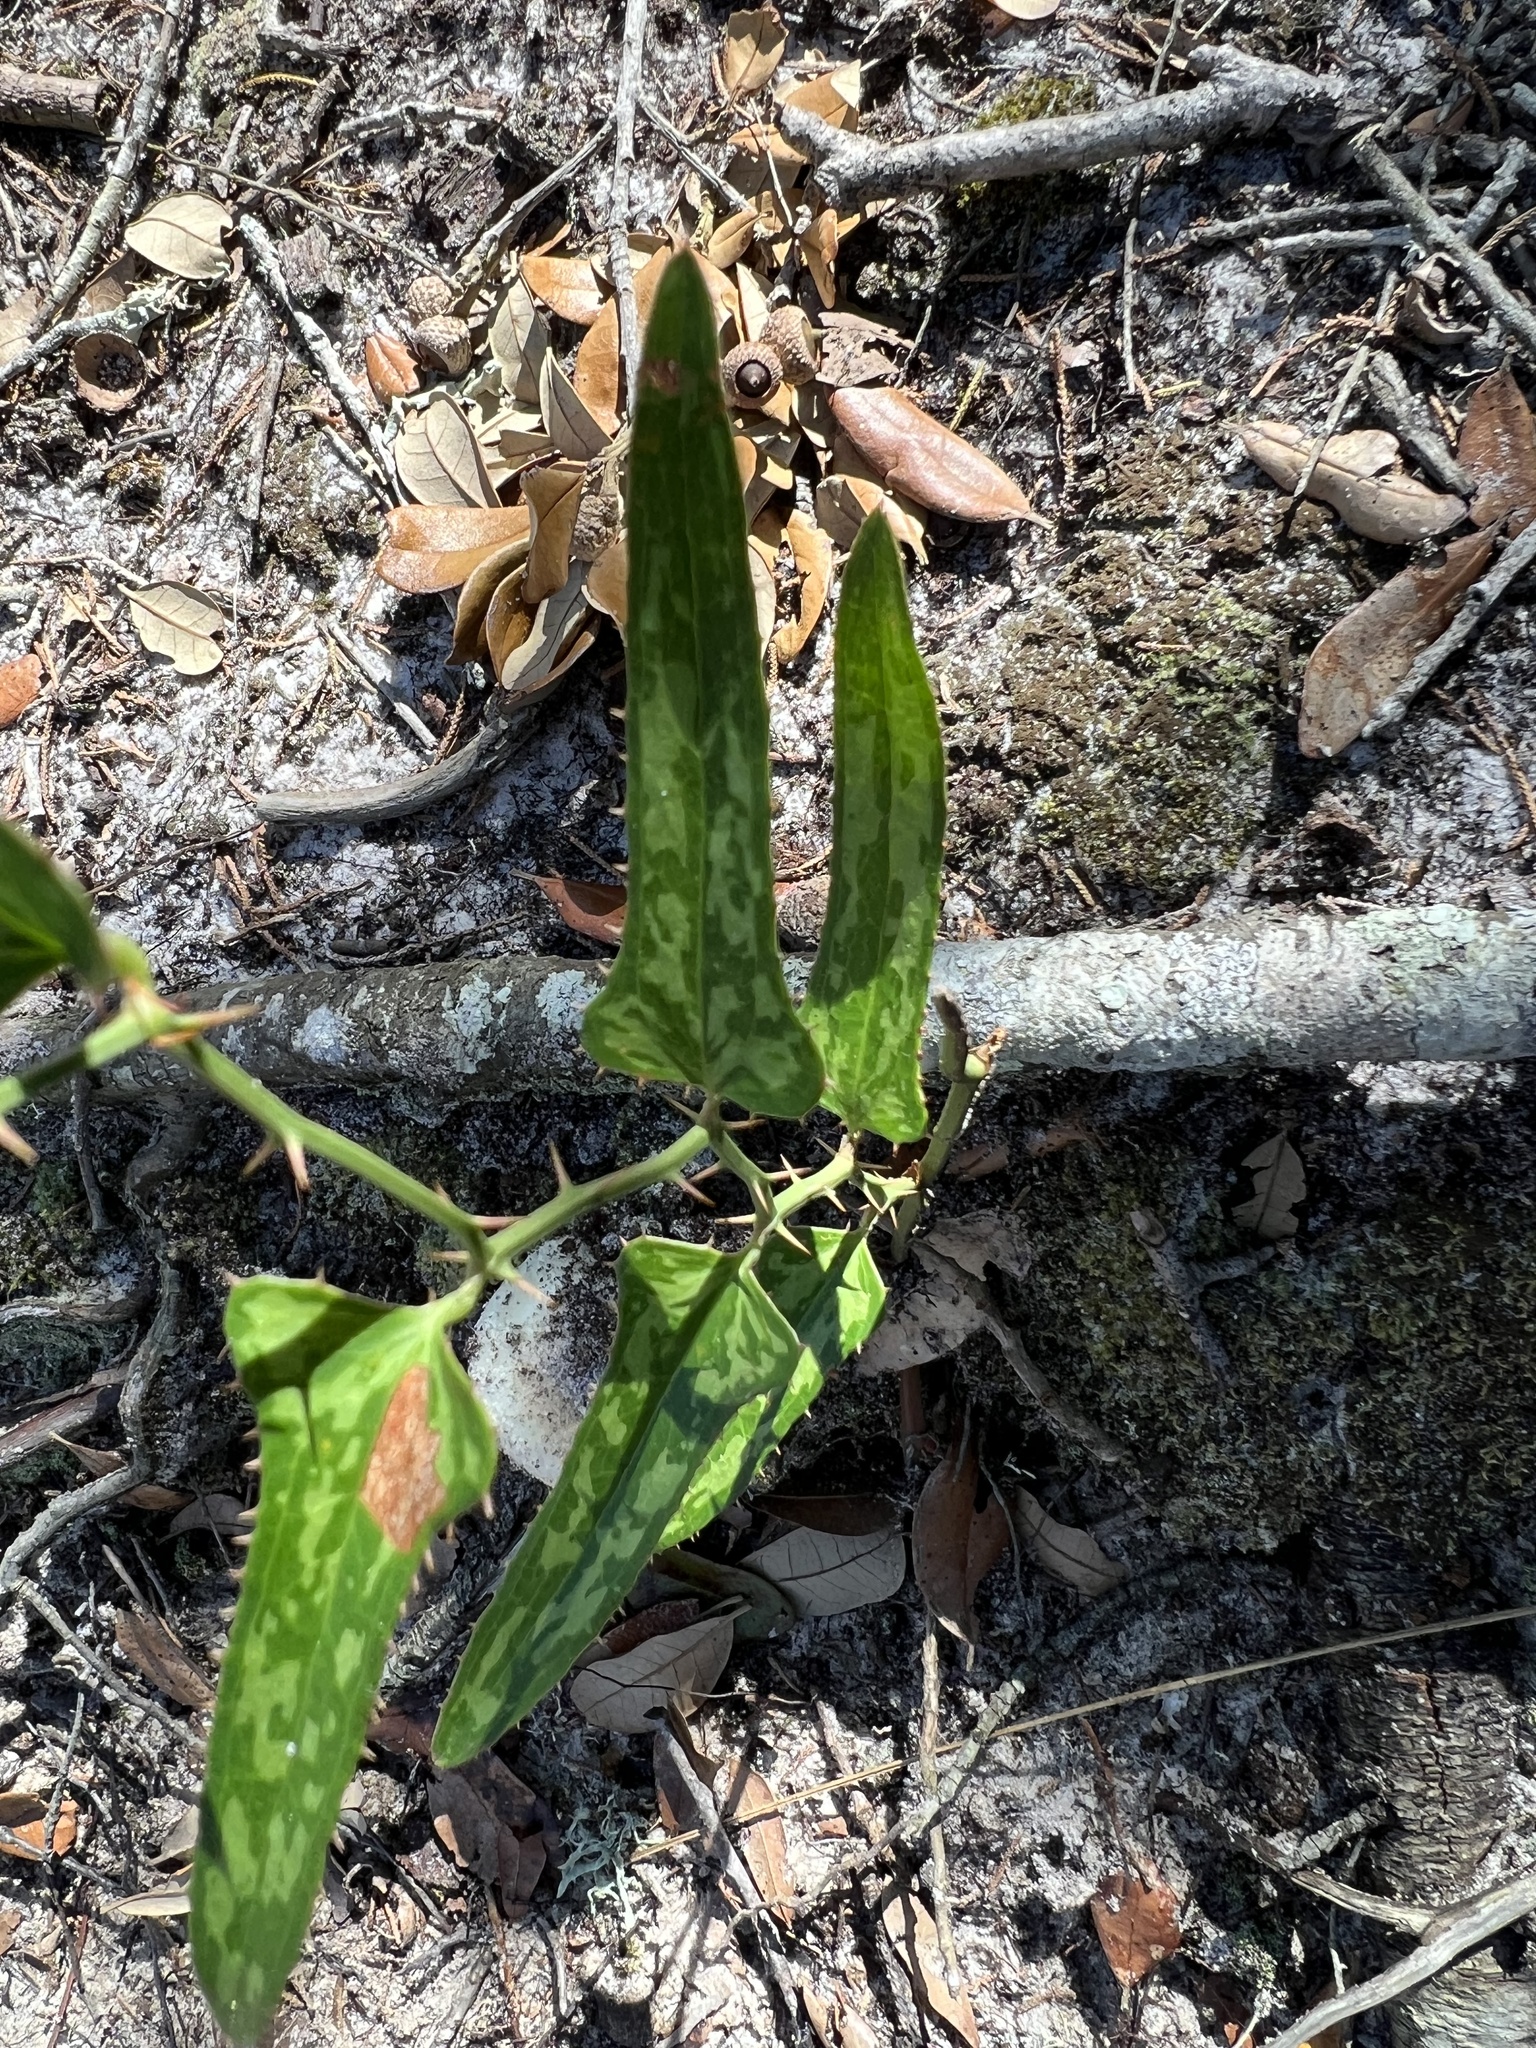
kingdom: Plantae
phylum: Tracheophyta
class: Liliopsida
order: Liliales
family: Smilacaceae
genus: Smilax
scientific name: Smilax bona-nox
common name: Catbrier
